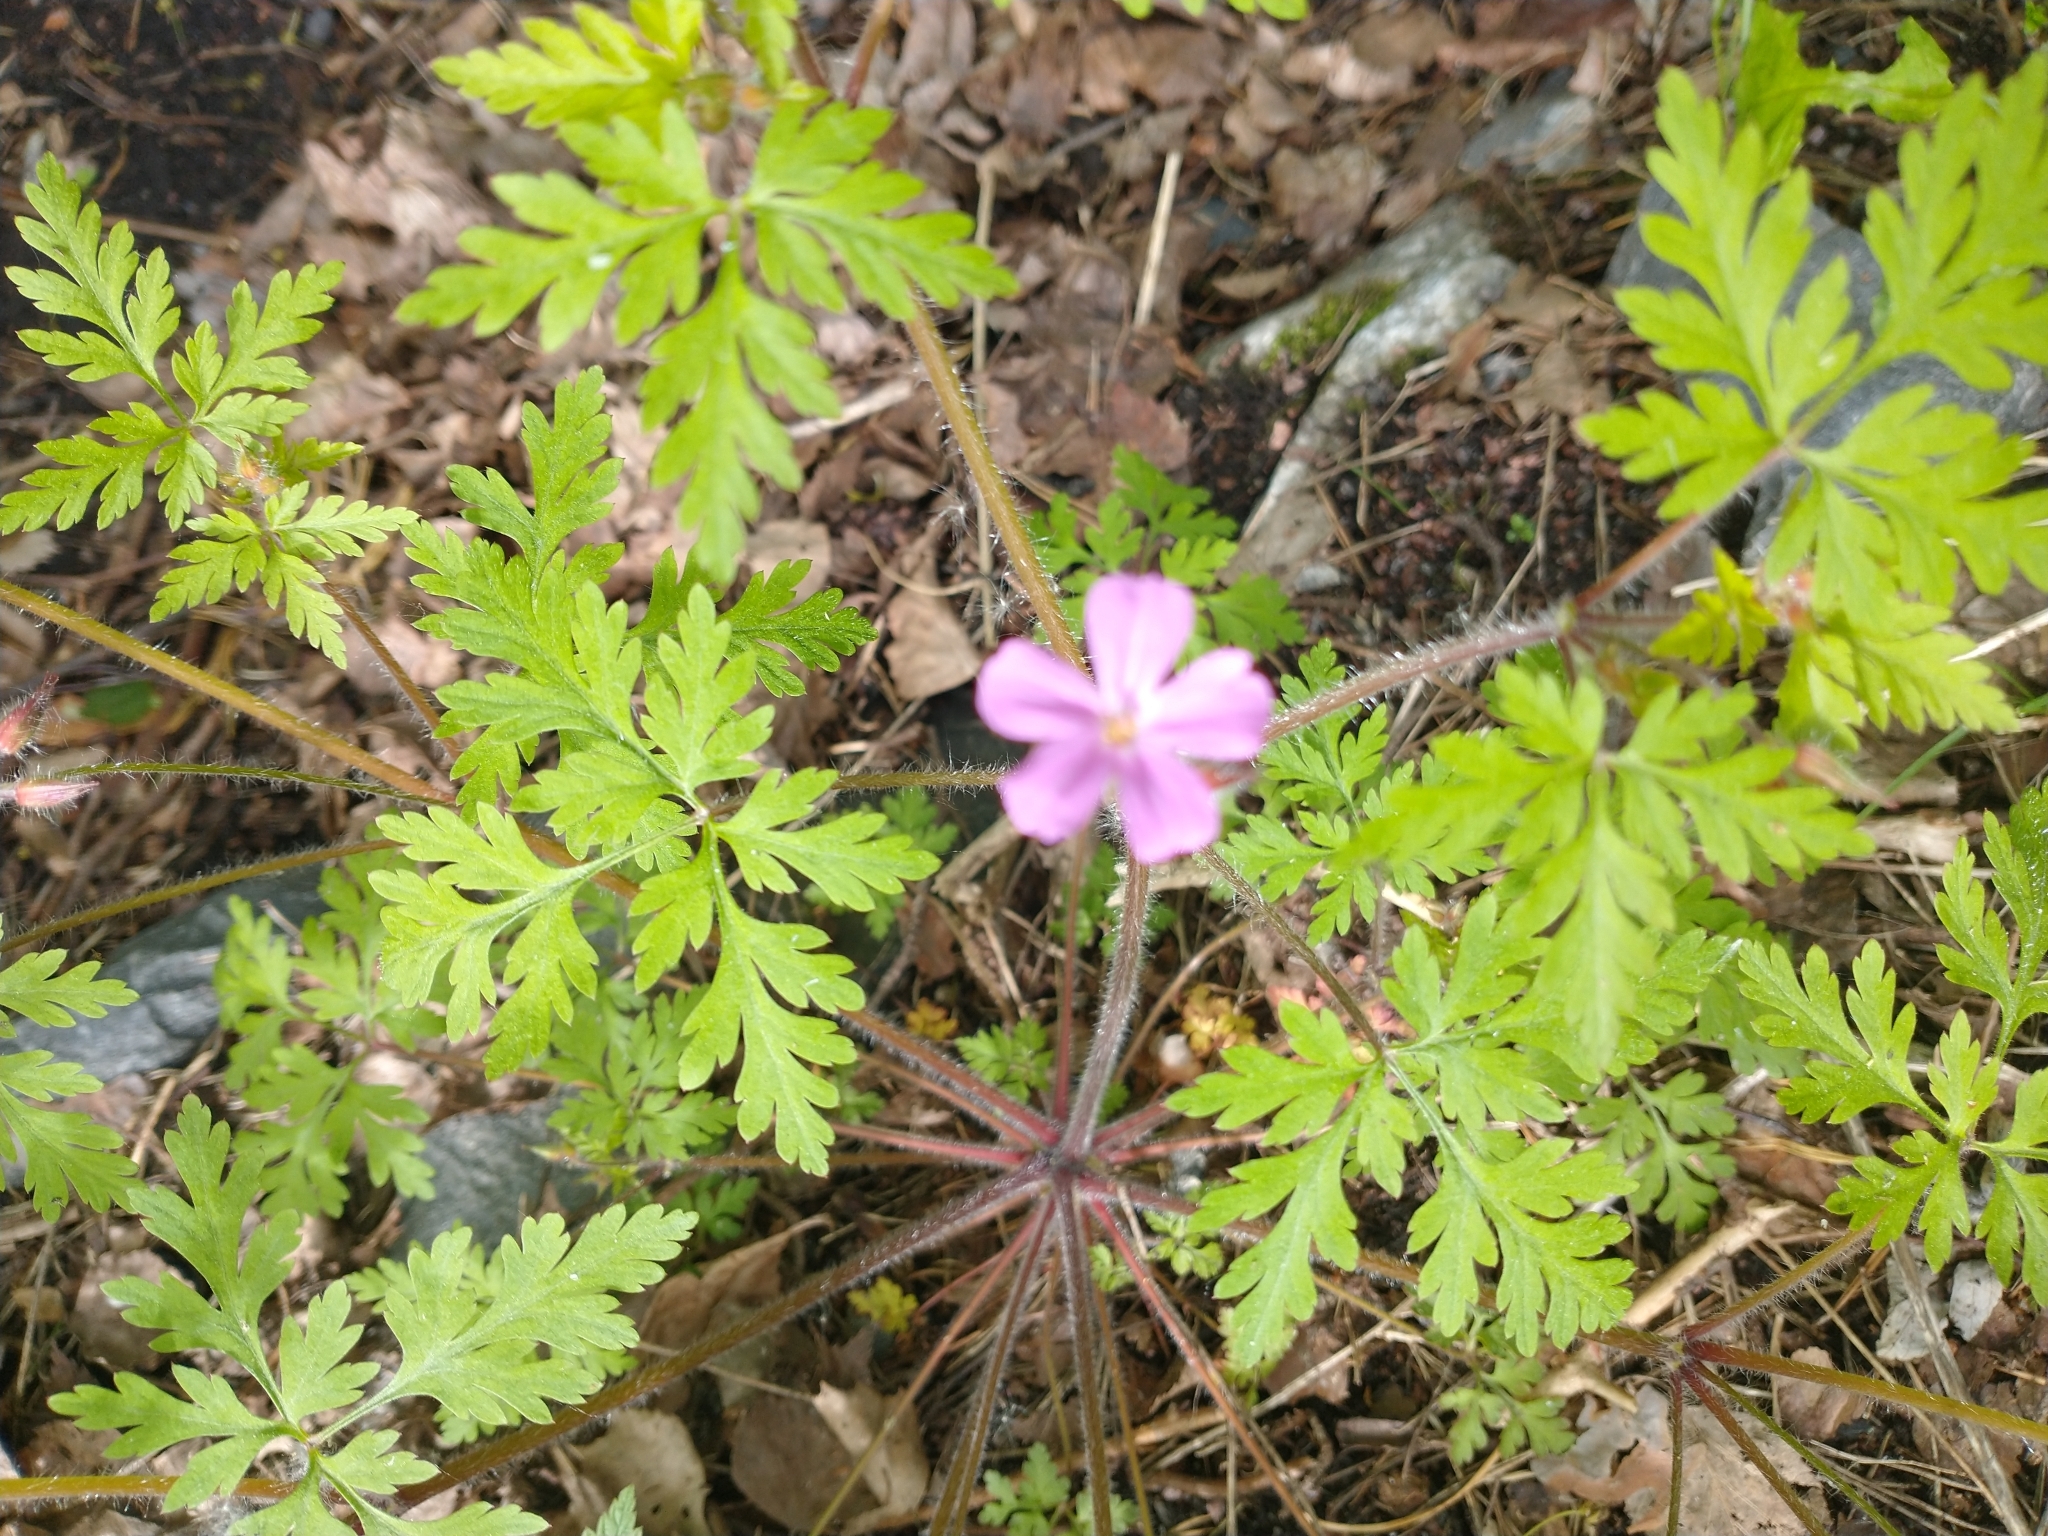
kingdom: Plantae
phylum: Tracheophyta
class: Magnoliopsida
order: Geraniales
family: Geraniaceae
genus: Geranium
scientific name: Geranium robertianum
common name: Herb-robert
